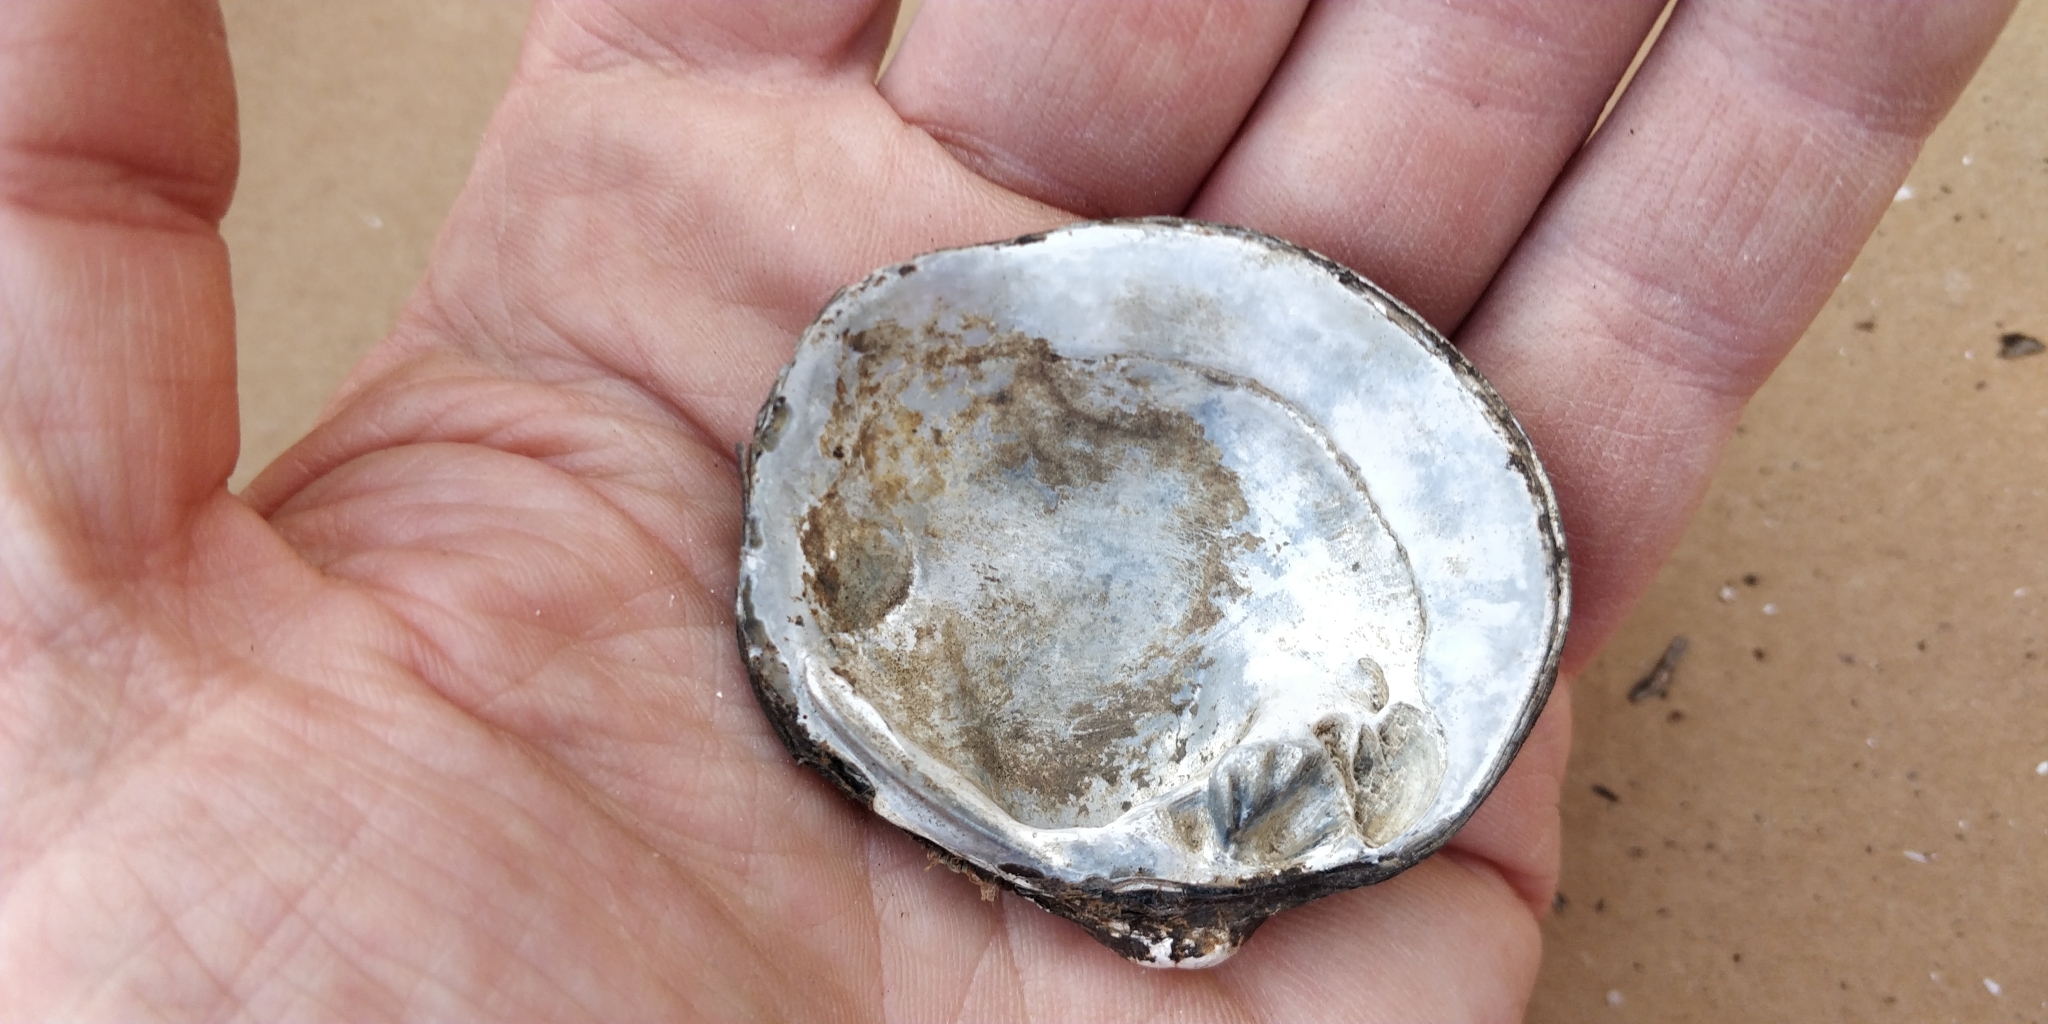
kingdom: Animalia
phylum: Mollusca
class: Bivalvia
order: Unionida
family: Unionidae
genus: Cyclonaias
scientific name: Cyclonaias pustulosa
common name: Pimpleback
